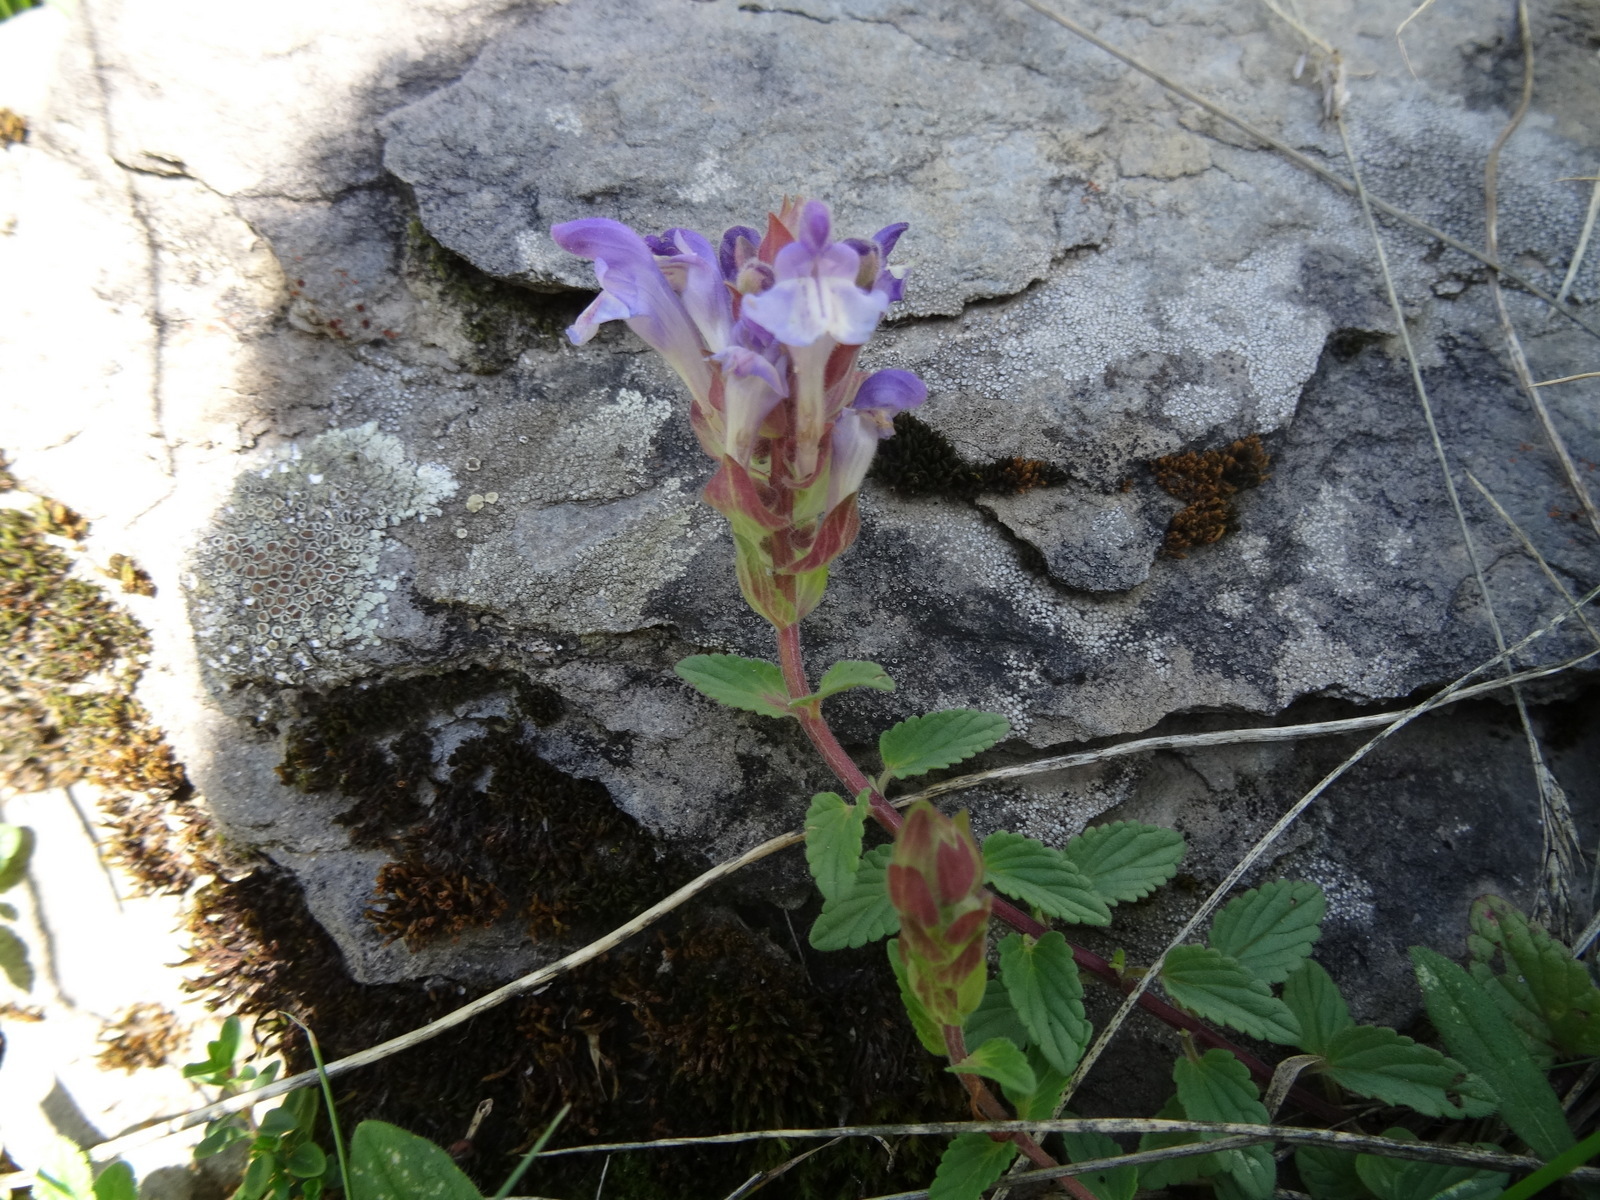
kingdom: Plantae
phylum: Tracheophyta
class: Magnoliopsida
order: Lamiales
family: Lamiaceae
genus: Scutellaria
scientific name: Scutellaria alpina
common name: Alpine scullcap
